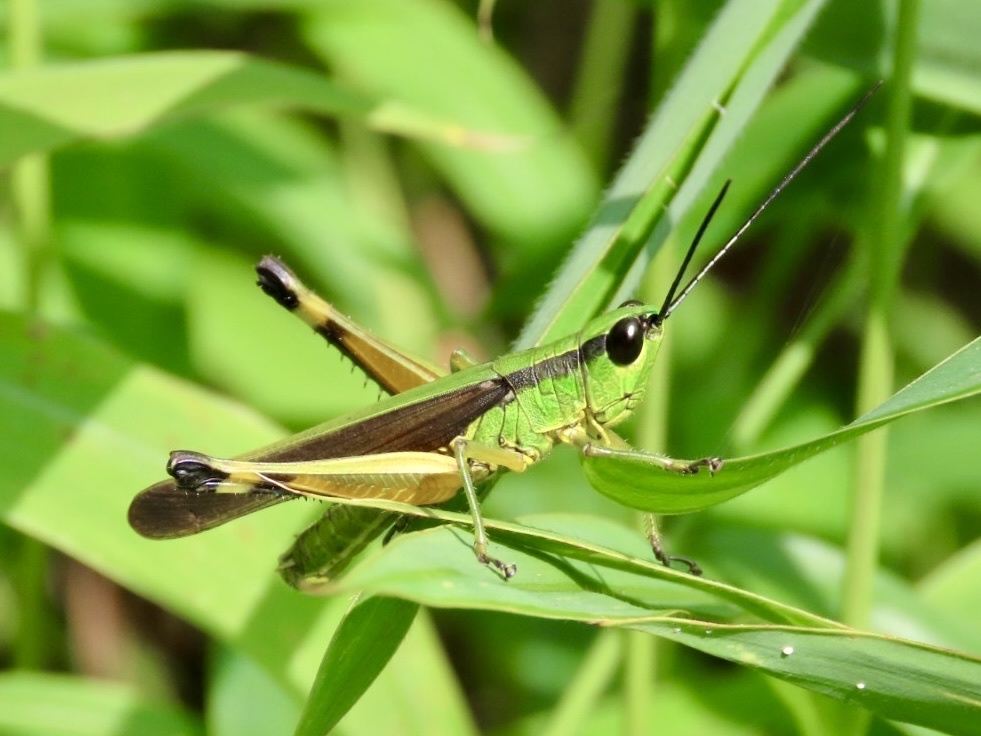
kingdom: Animalia
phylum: Arthropoda
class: Insecta
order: Orthoptera
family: Acrididae
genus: Ceracris
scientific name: Ceracris nigricornis
